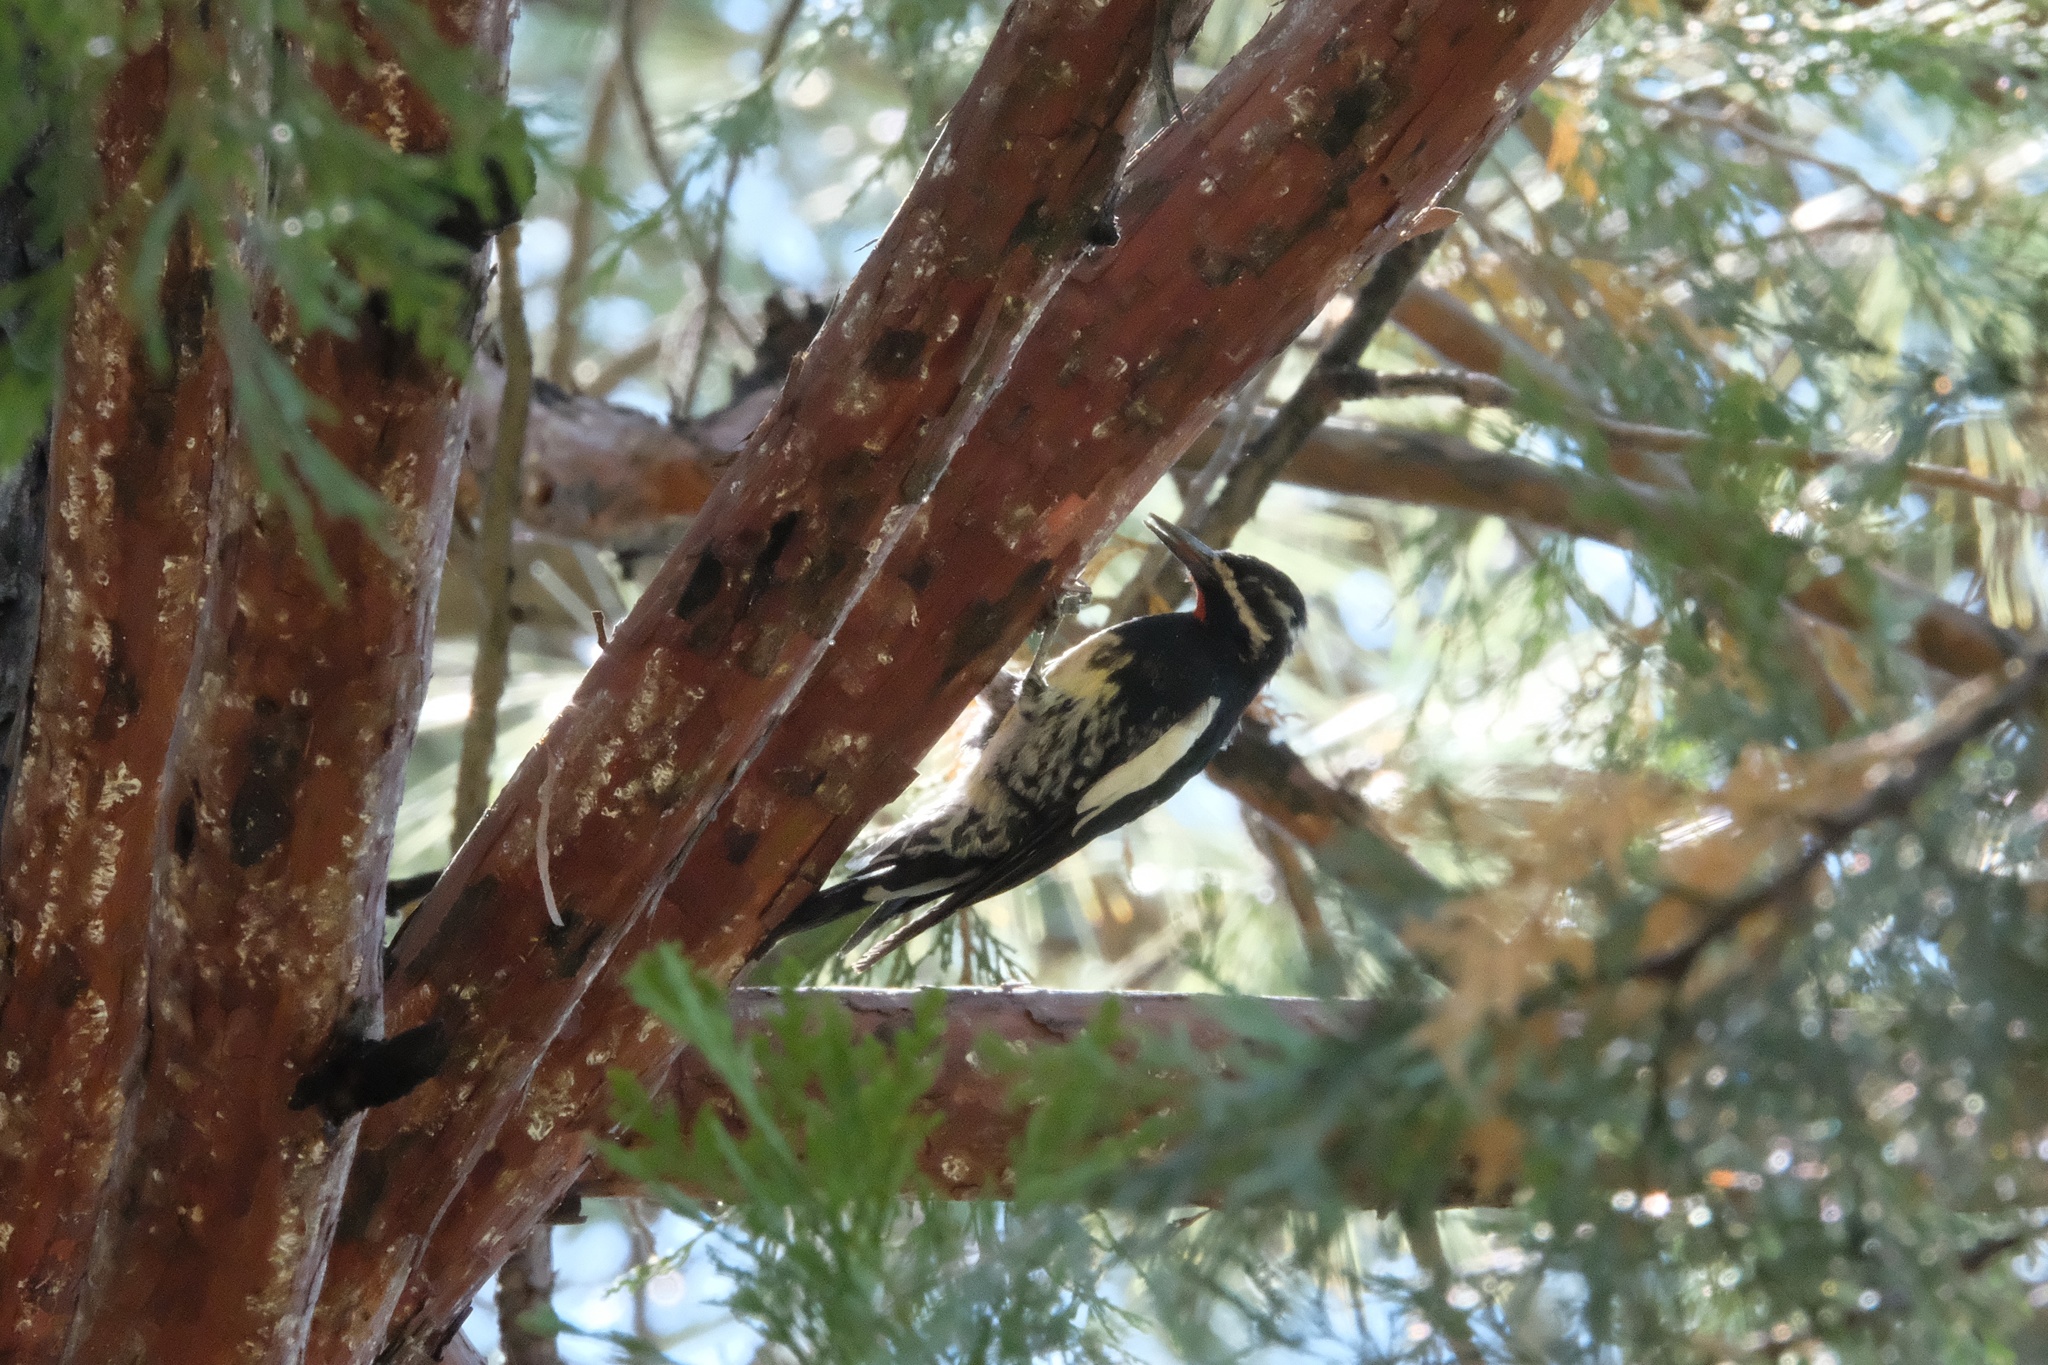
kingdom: Animalia
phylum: Chordata
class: Aves
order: Piciformes
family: Picidae
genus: Sphyrapicus
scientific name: Sphyrapicus thyroideus
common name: Williamson's sapsucker
